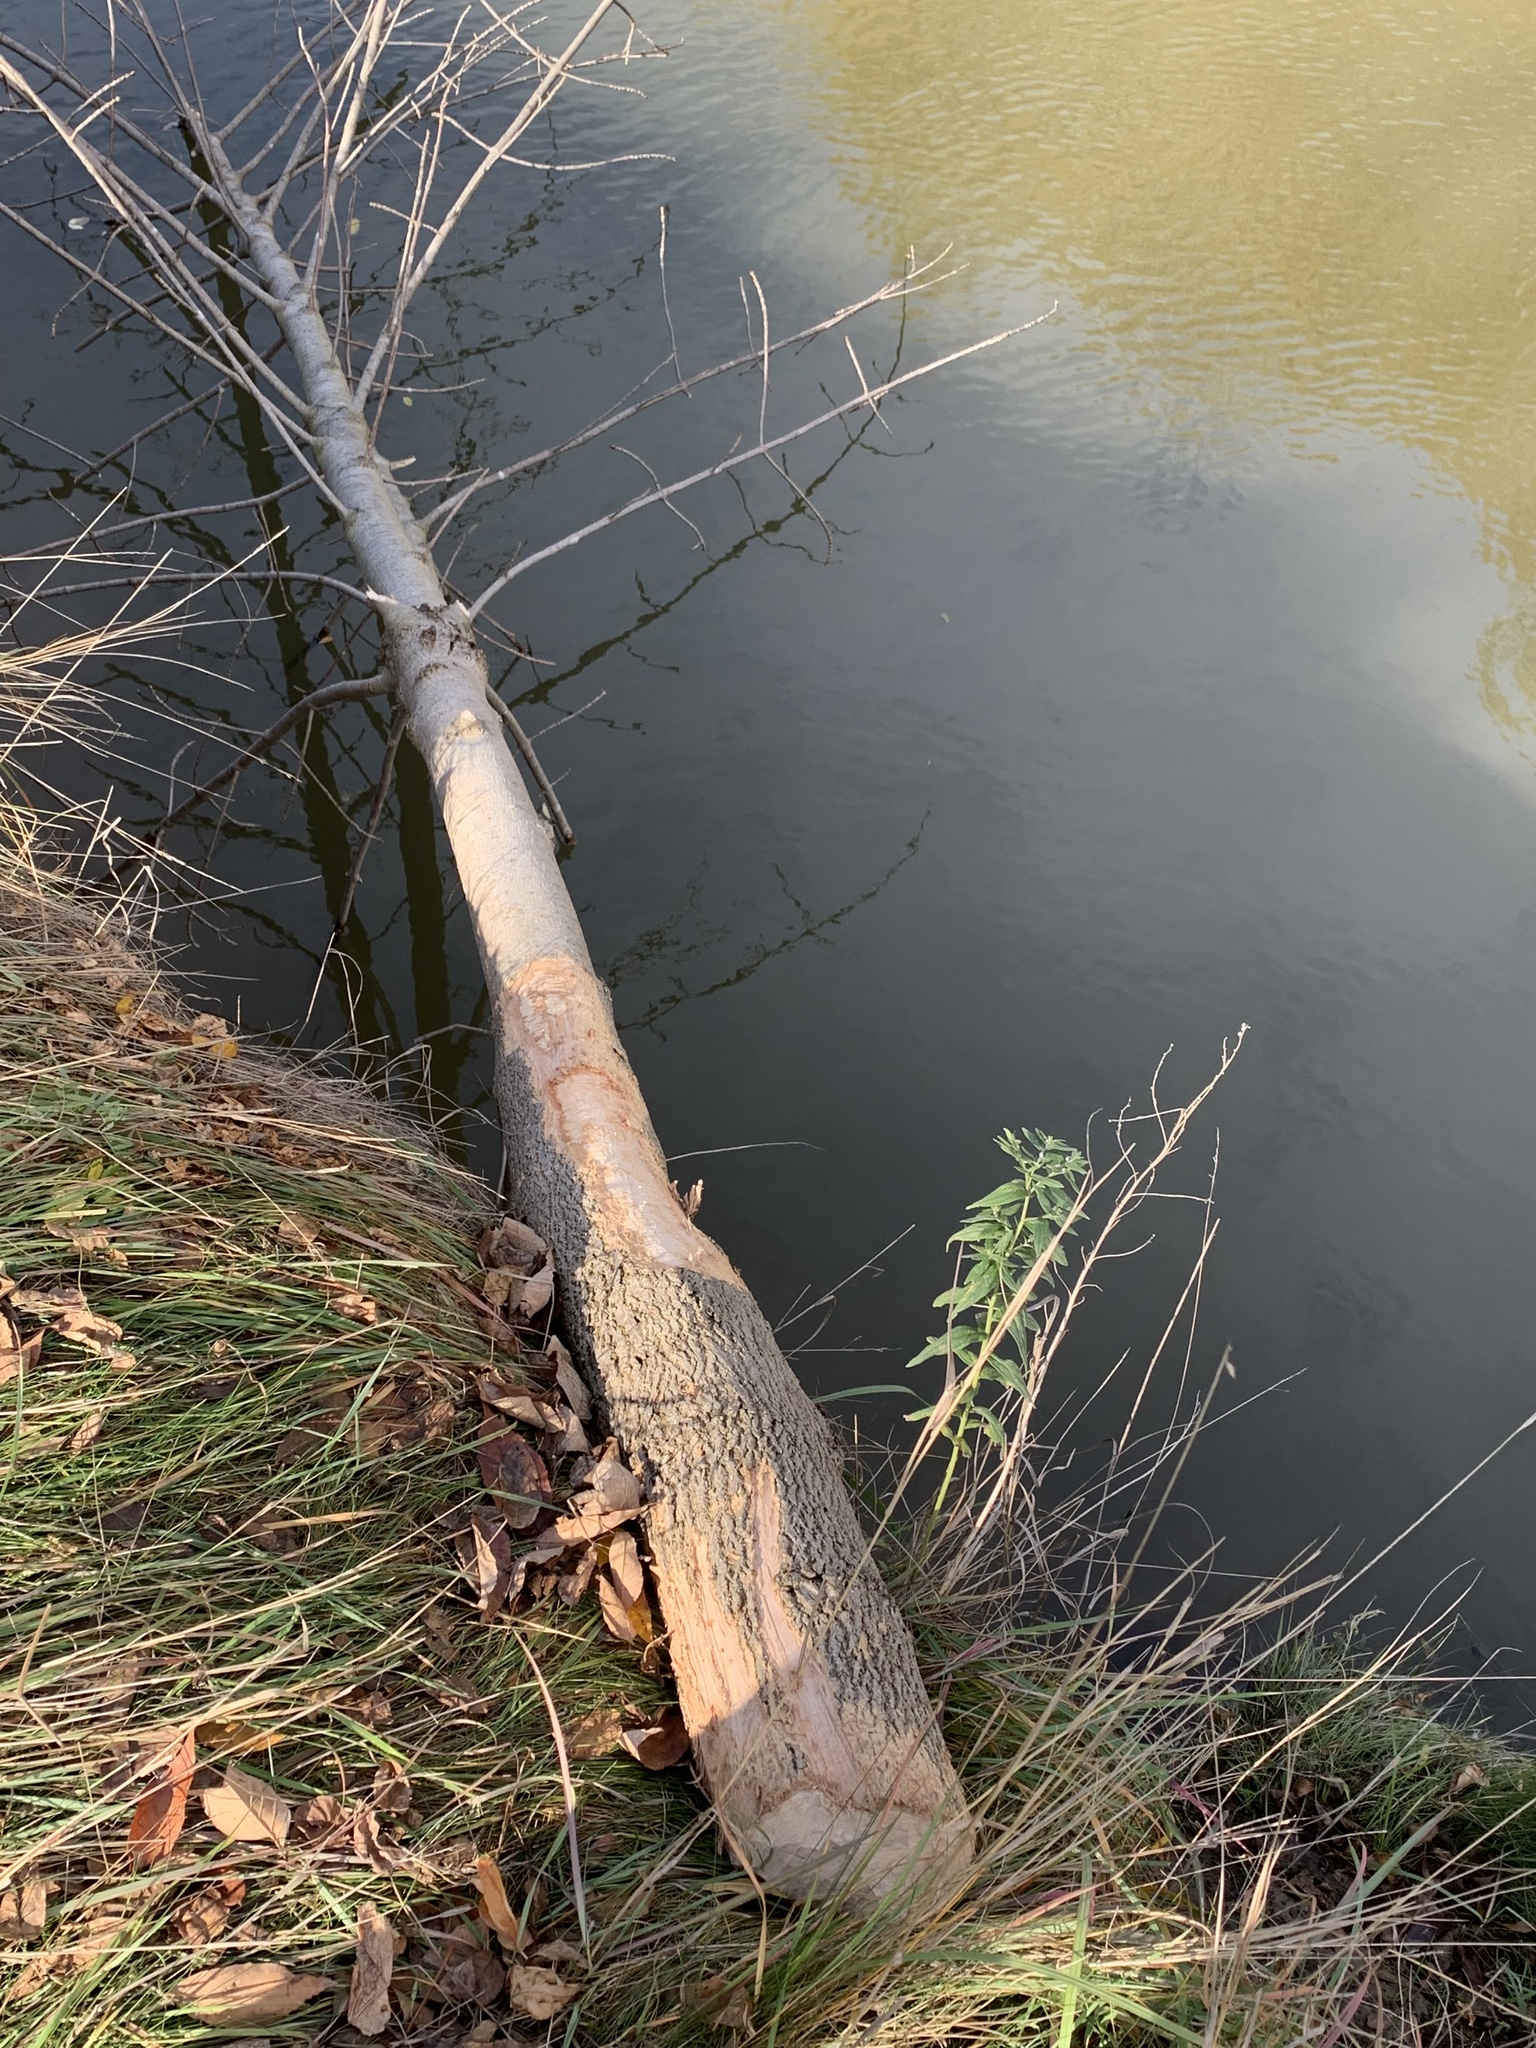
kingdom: Animalia
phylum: Chordata
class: Mammalia
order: Rodentia
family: Castoridae
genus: Castor
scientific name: Castor canadensis
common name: American beaver
